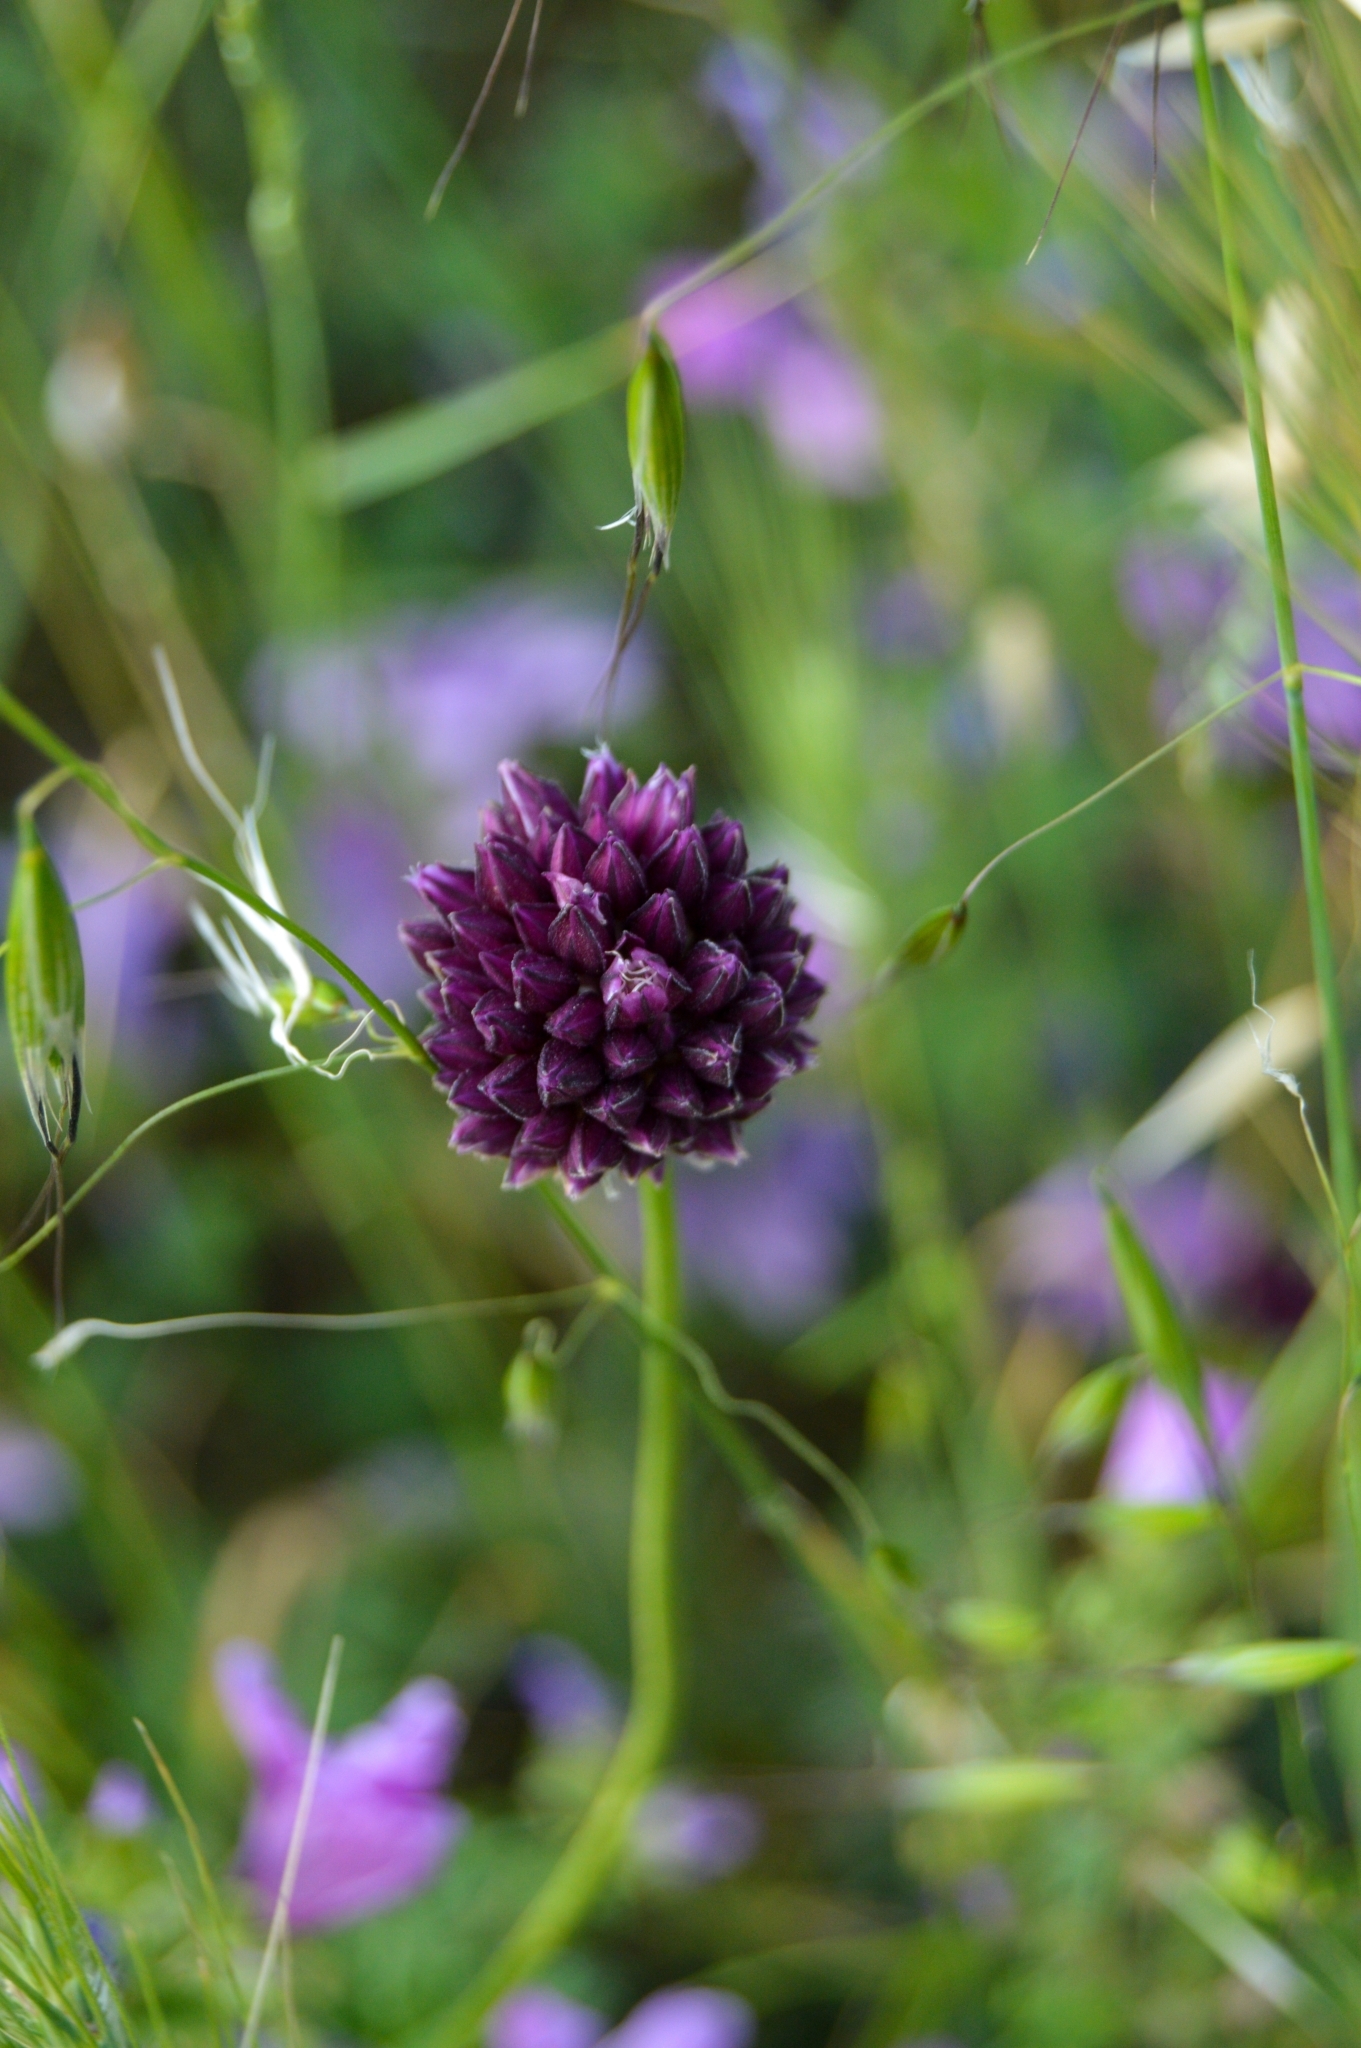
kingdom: Plantae
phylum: Tracheophyta
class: Liliopsida
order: Asparagales
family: Amaryllidaceae
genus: Allium
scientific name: Allium rotundum
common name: Sand leek
